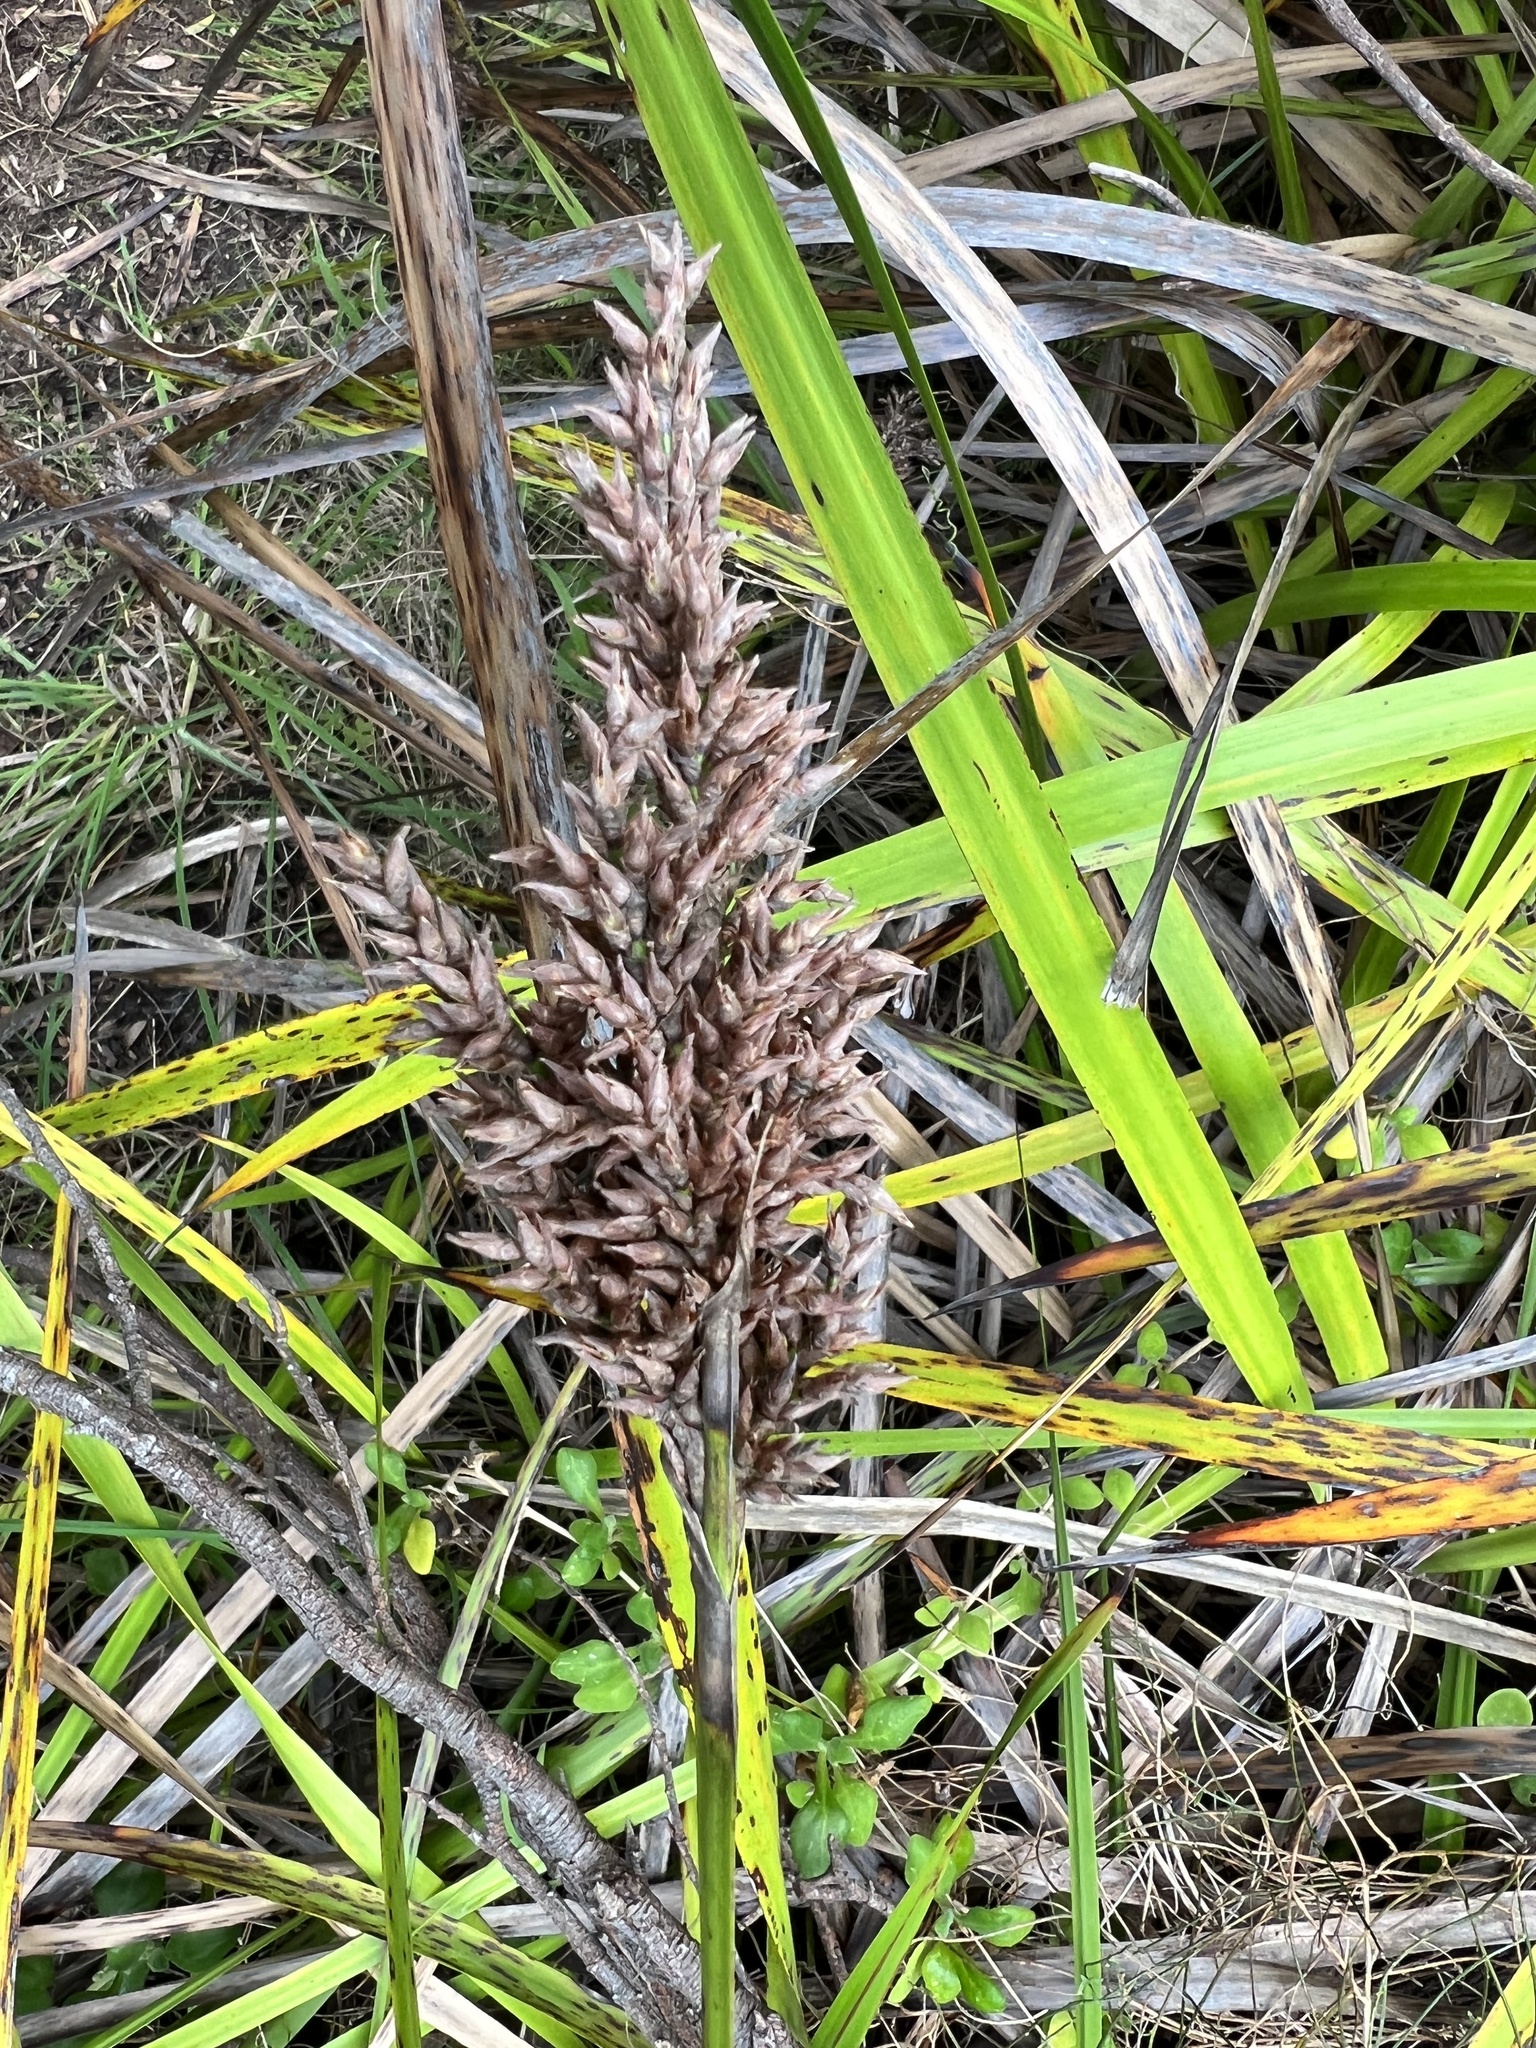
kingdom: Plantae
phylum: Tracheophyta
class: Liliopsida
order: Poales
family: Cyperaceae
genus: Lepidosperma
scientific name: Lepidosperma gladiatum
